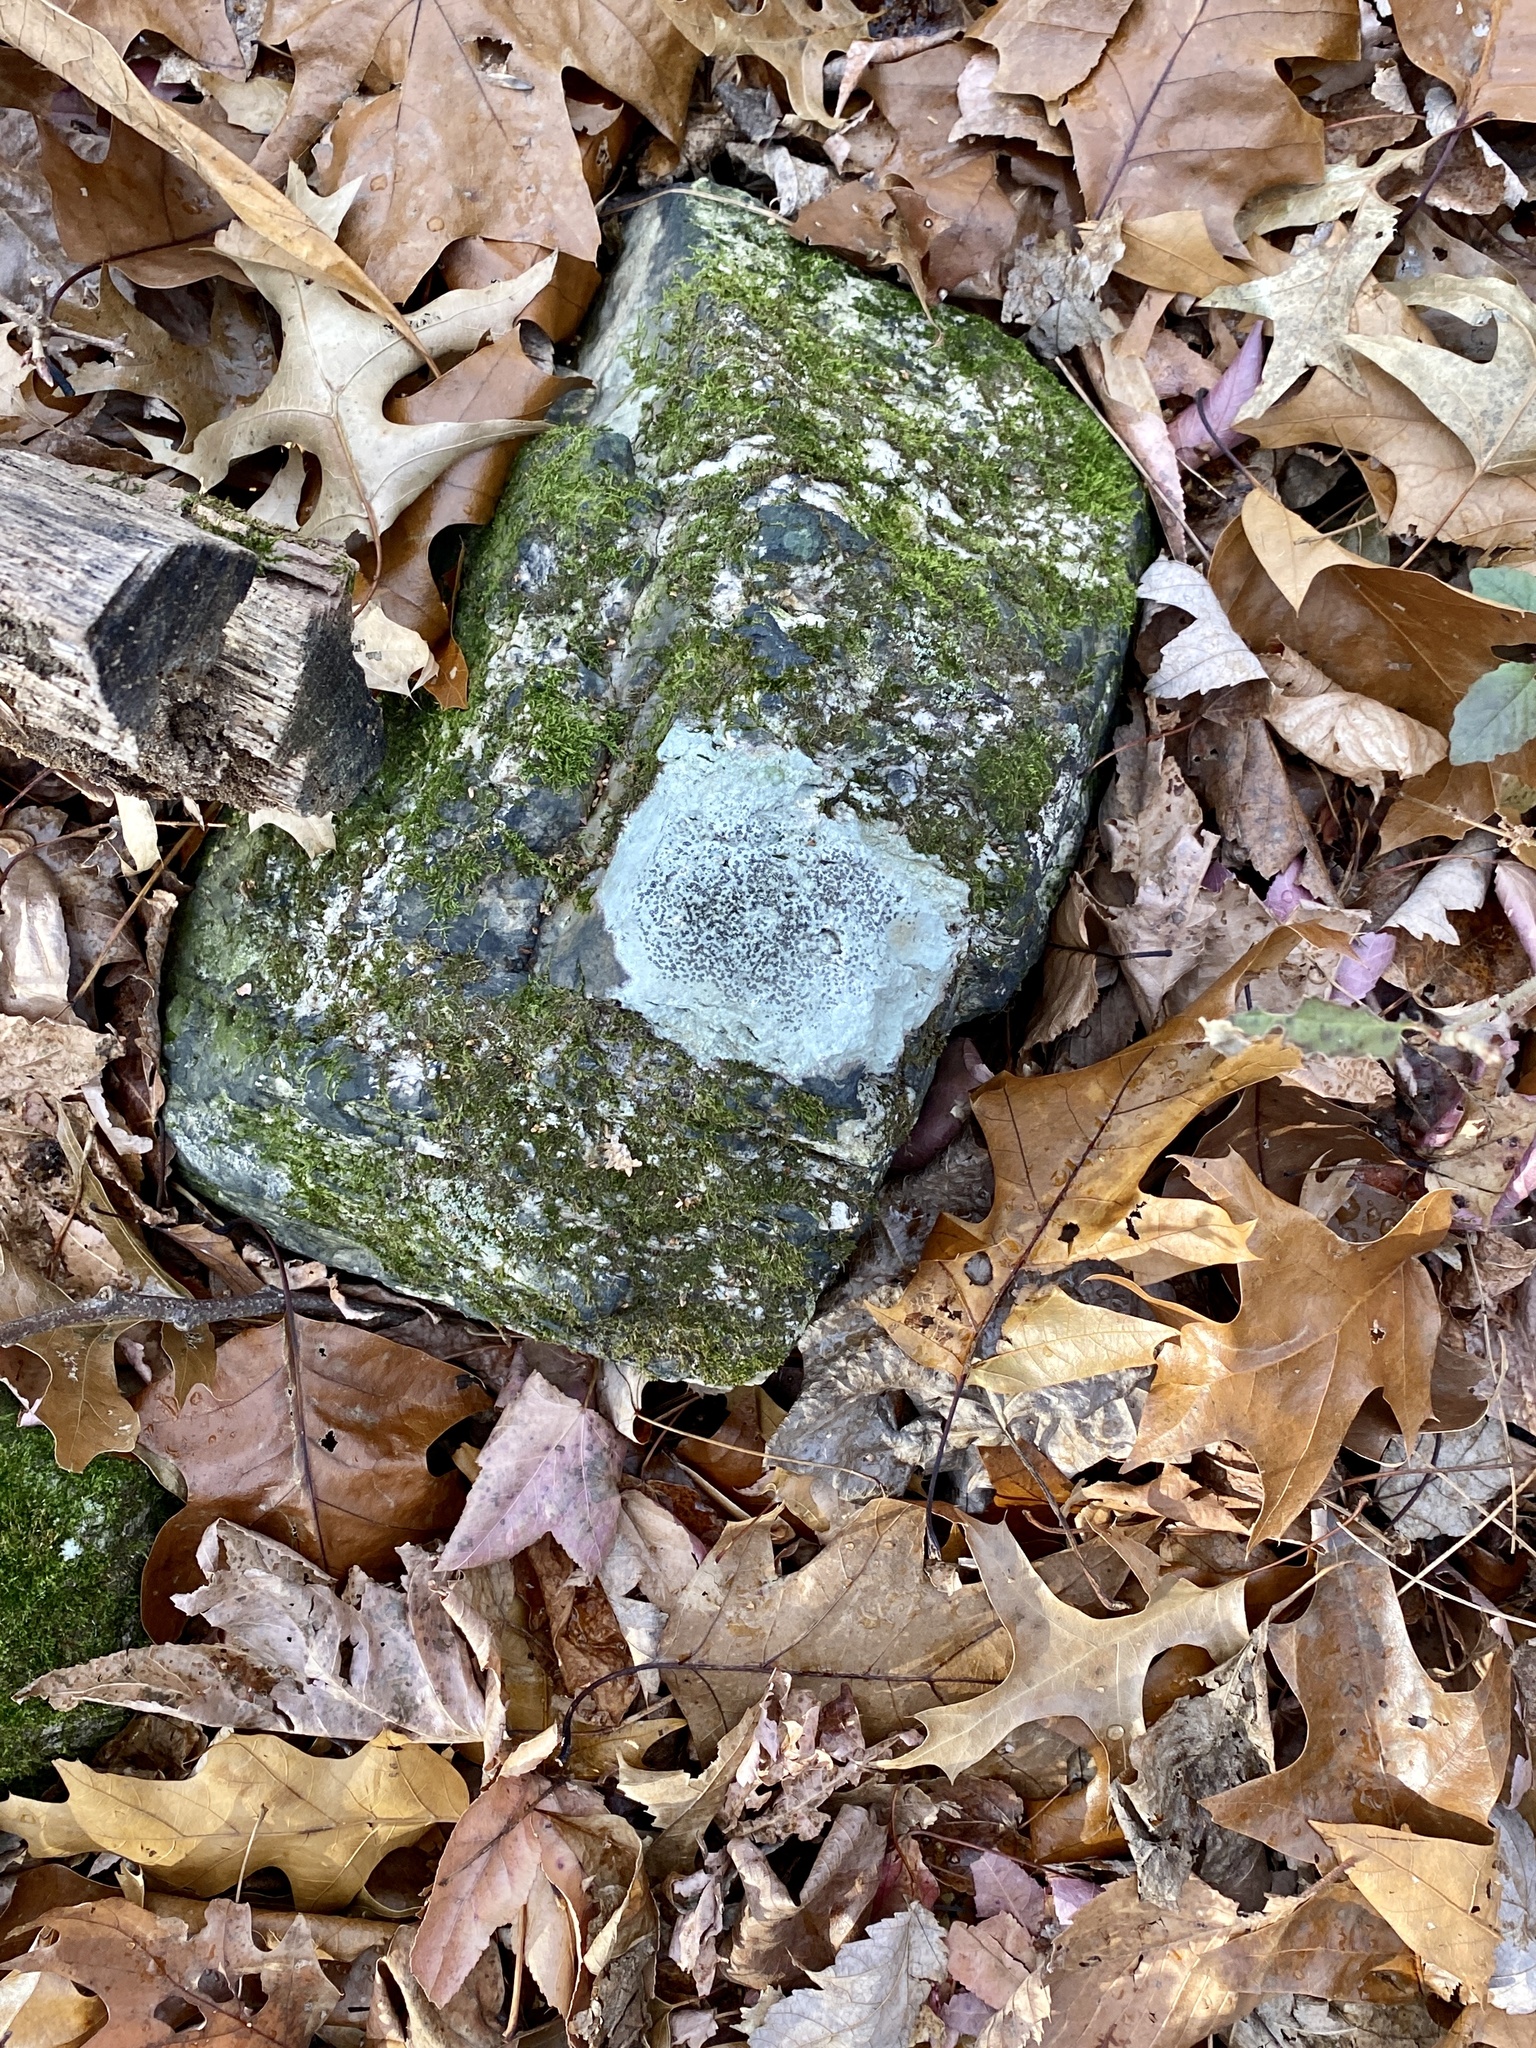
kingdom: Fungi
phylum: Ascomycota
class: Lecanoromycetes
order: Lecideales
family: Lecideaceae
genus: Porpidia
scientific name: Porpidia albocaerulescens
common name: Smokey-eyed boulder lichen
